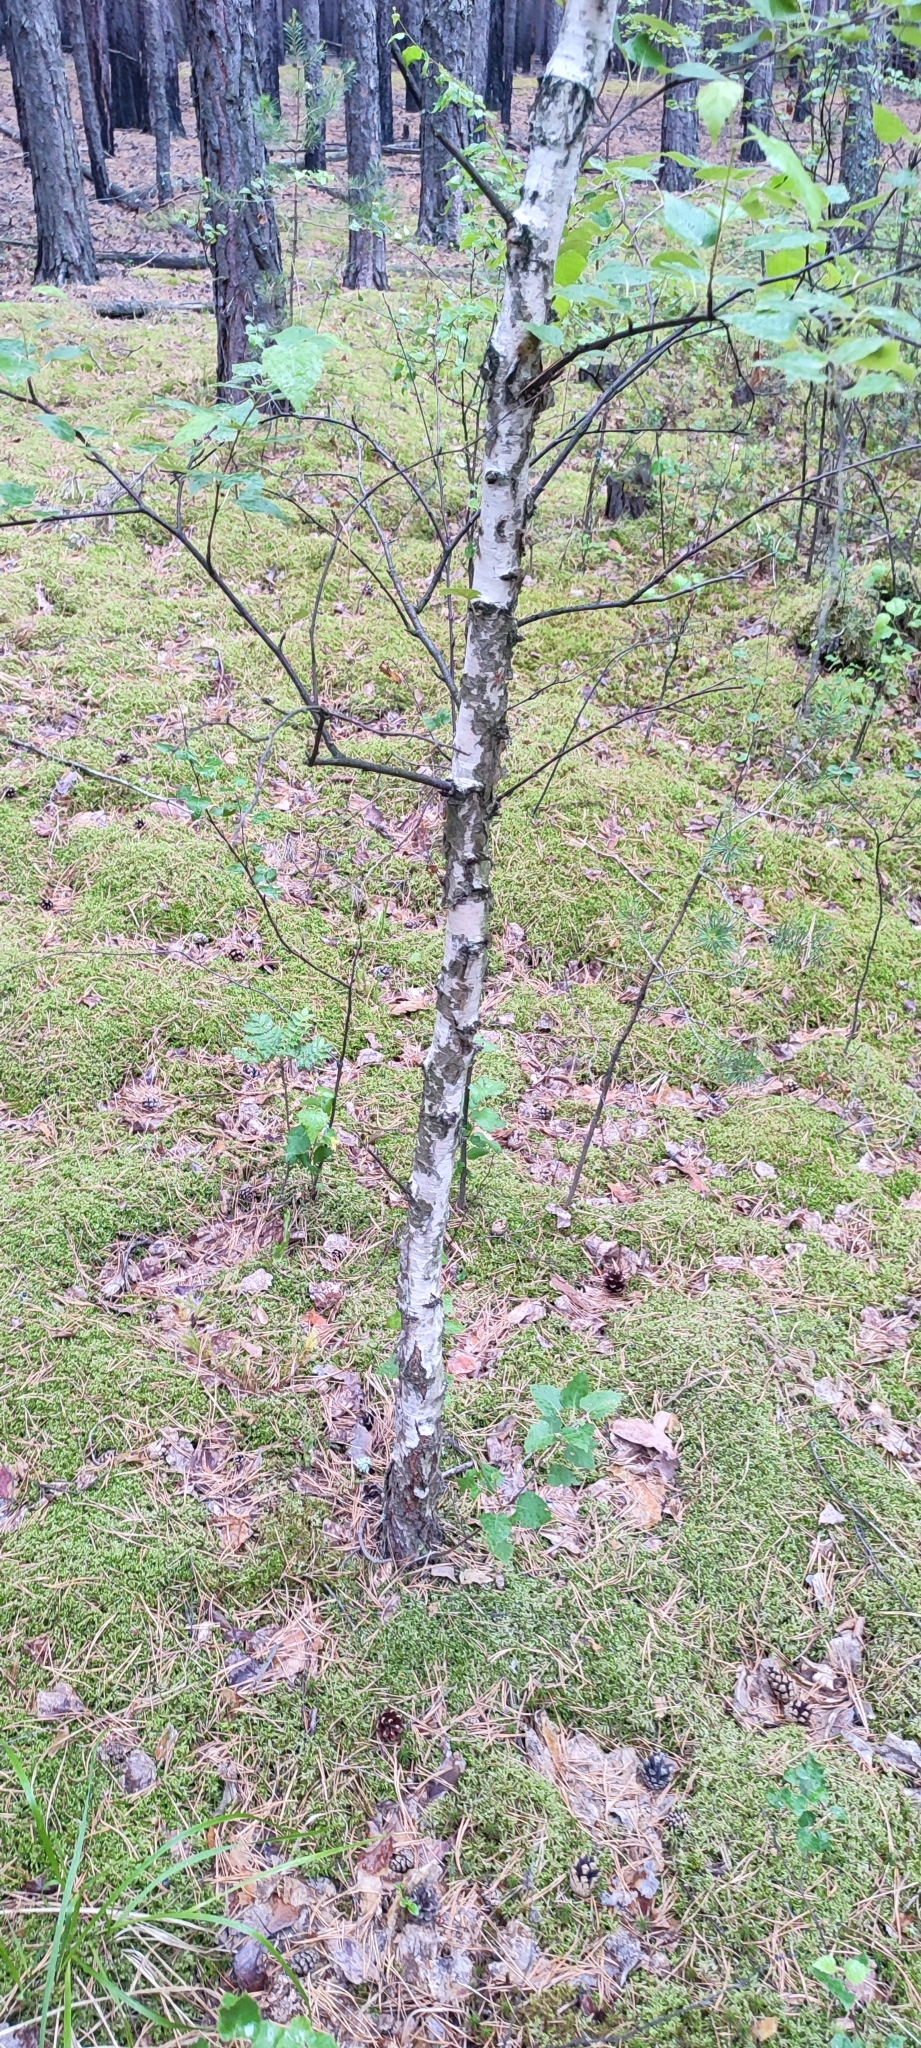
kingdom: Plantae
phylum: Tracheophyta
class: Magnoliopsida
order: Fagales
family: Betulaceae
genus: Betula
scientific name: Betula pendula
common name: Silver birch
